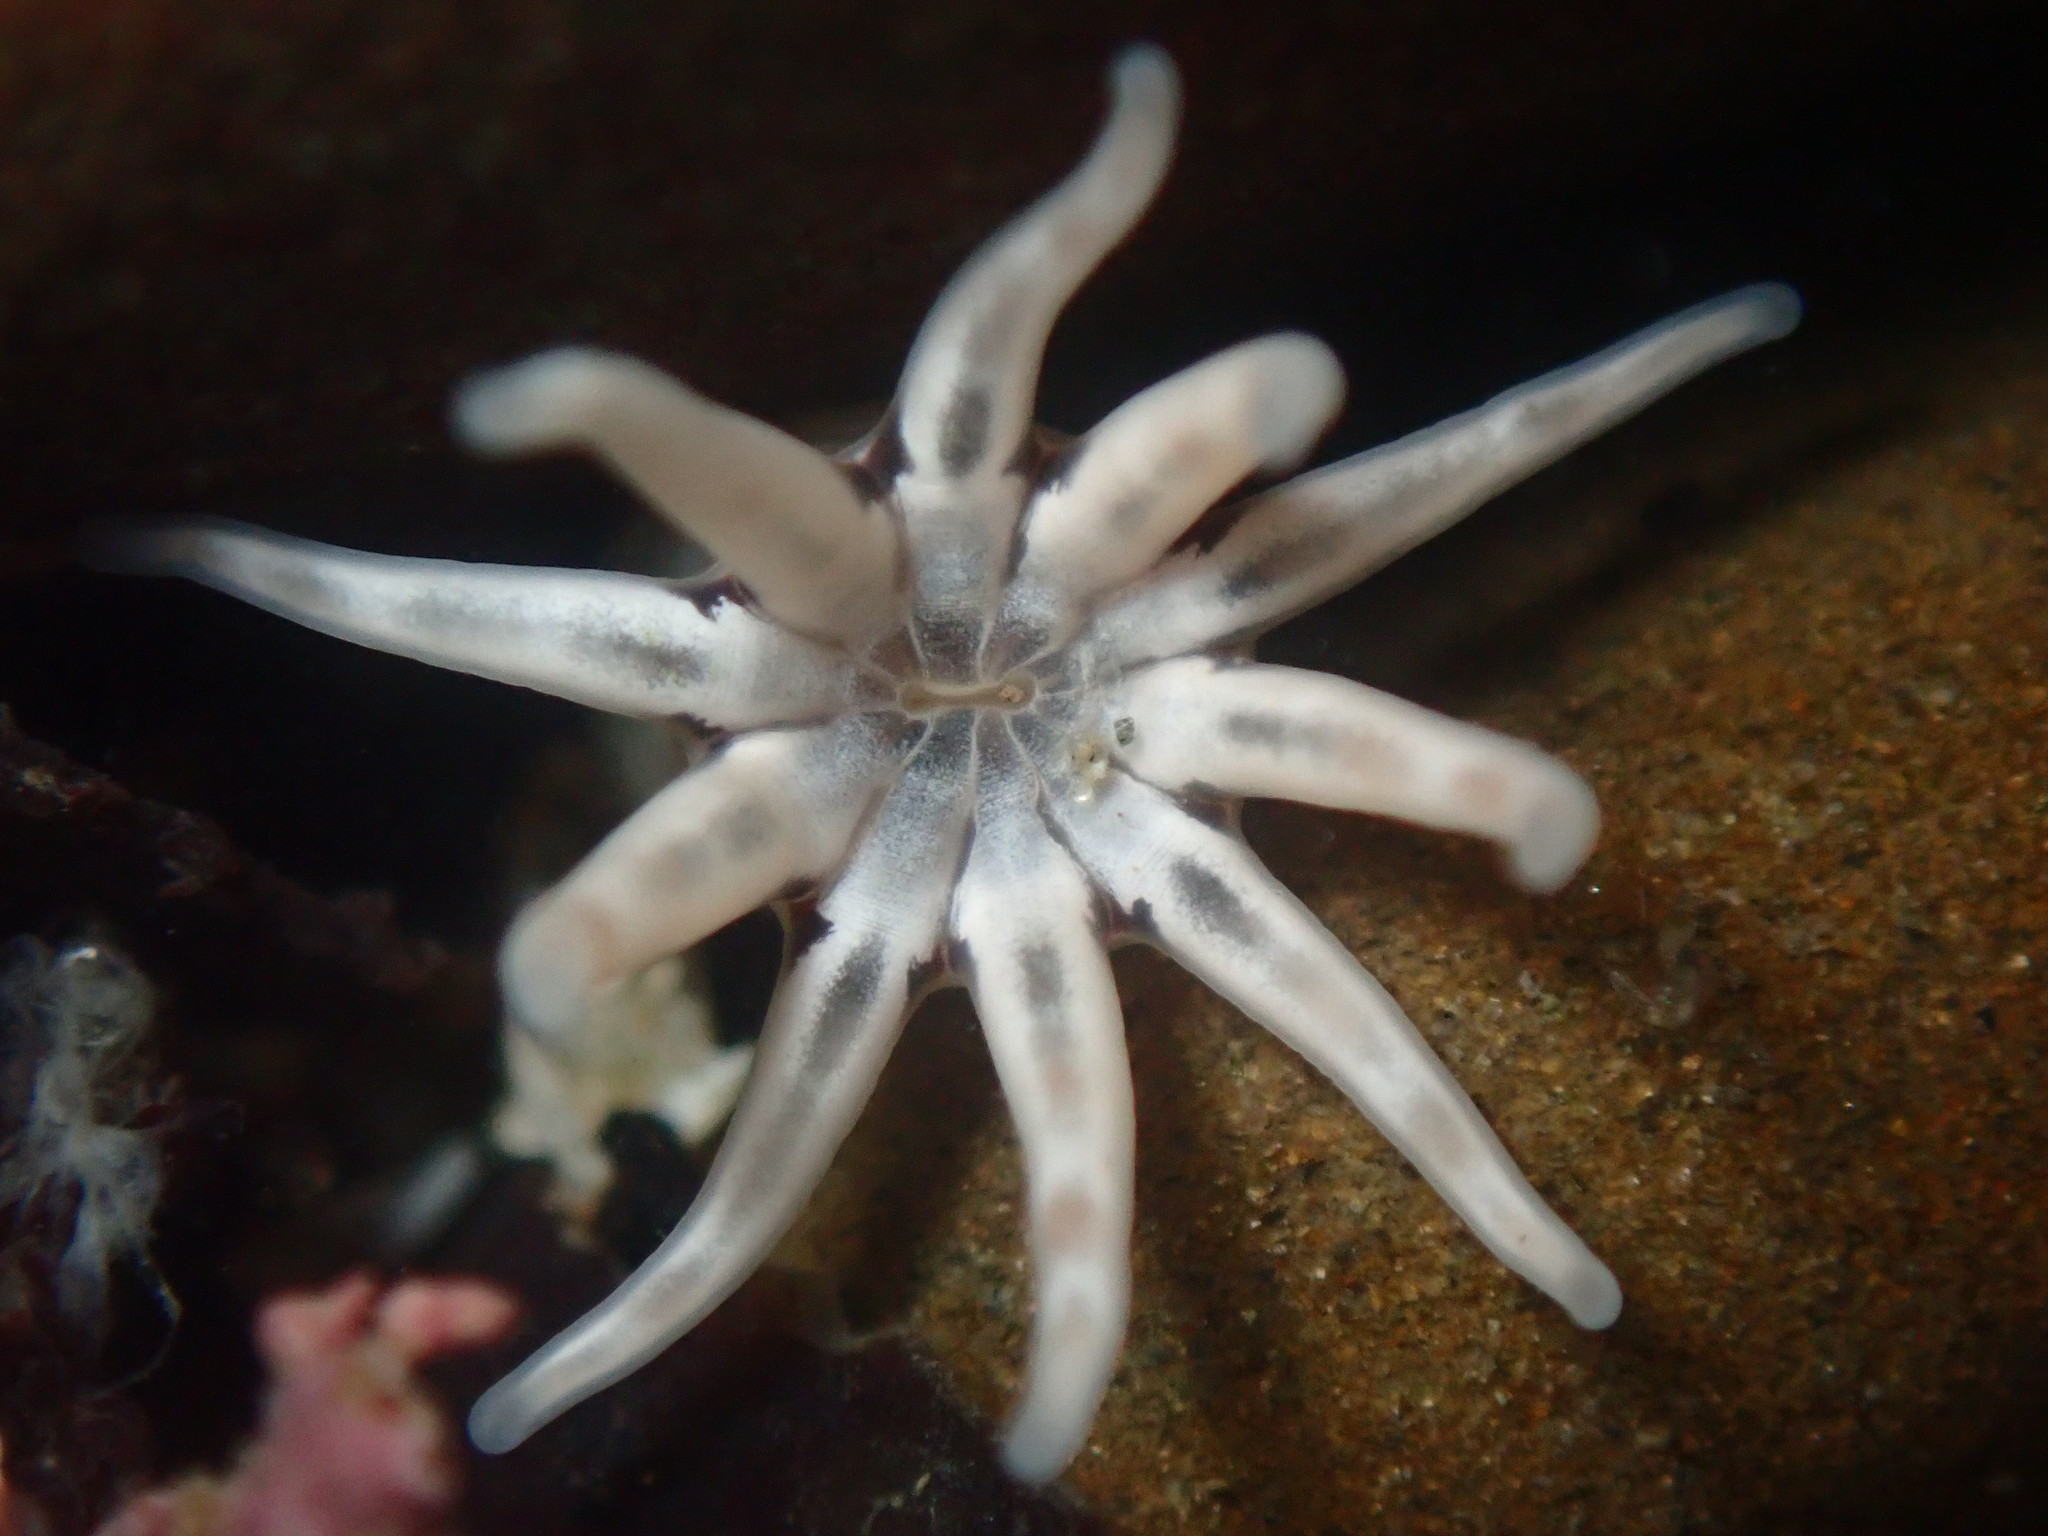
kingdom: Animalia
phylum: Cnidaria
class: Anthozoa
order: Actiniaria
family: Halcampidae
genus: Halcampa
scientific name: Halcampa decemtentaculata
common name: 10-tentacle burrowing anemone
